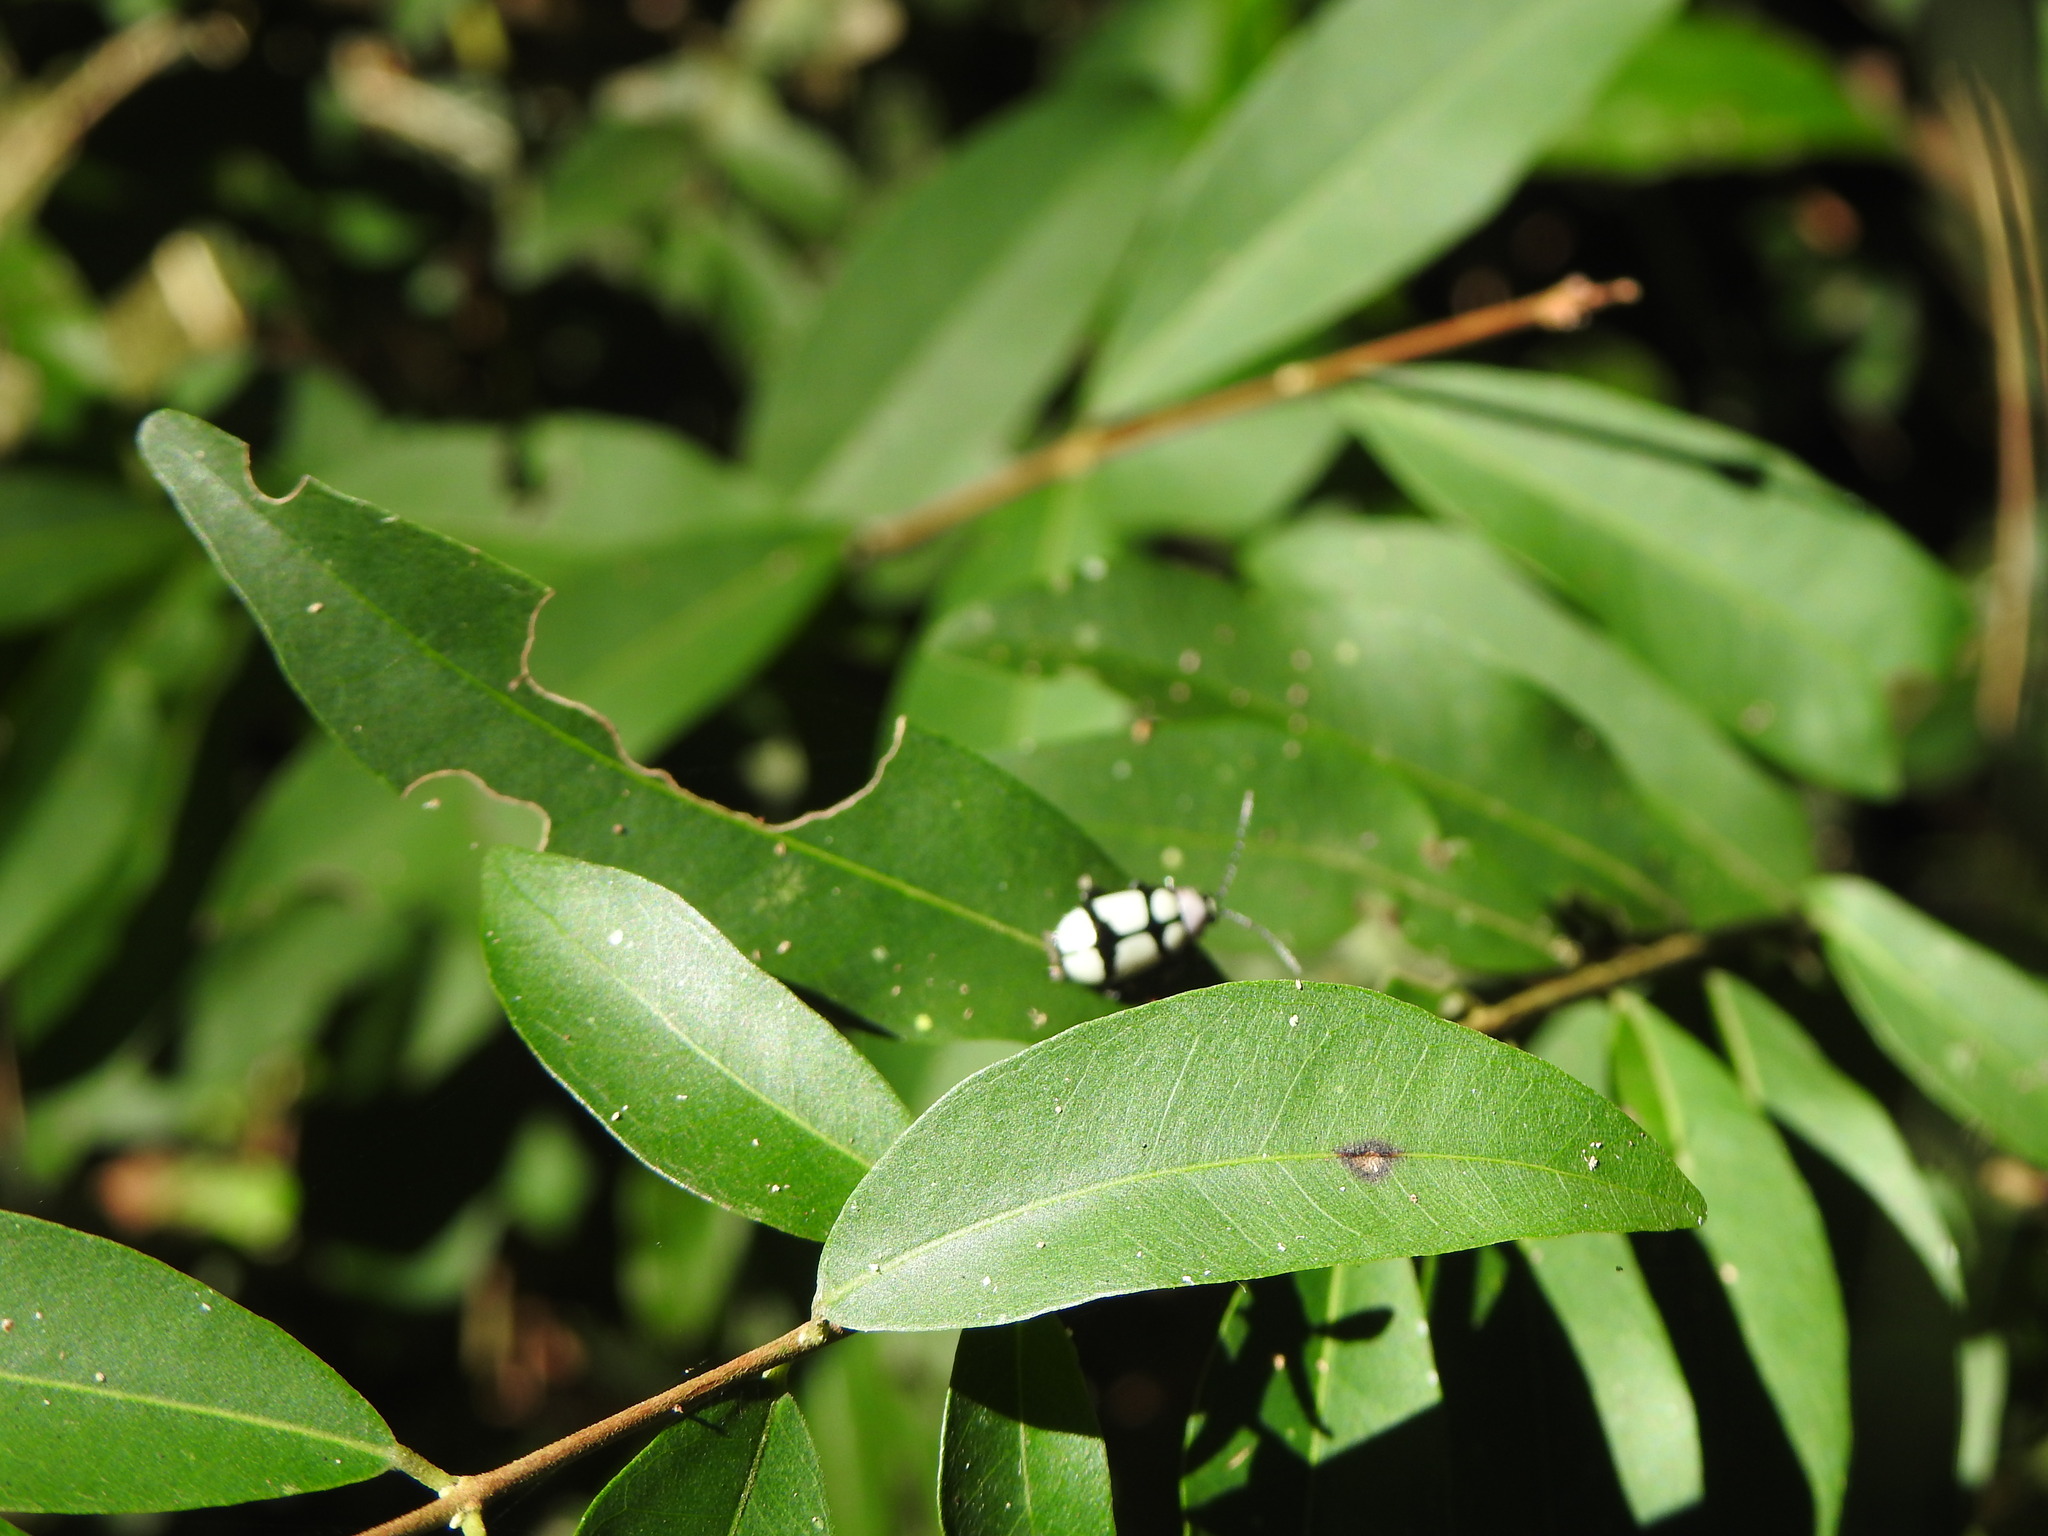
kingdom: Animalia
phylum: Arthropoda
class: Insecta
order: Coleoptera
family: Chrysomelidae
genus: Omophoita
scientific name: Omophoita
